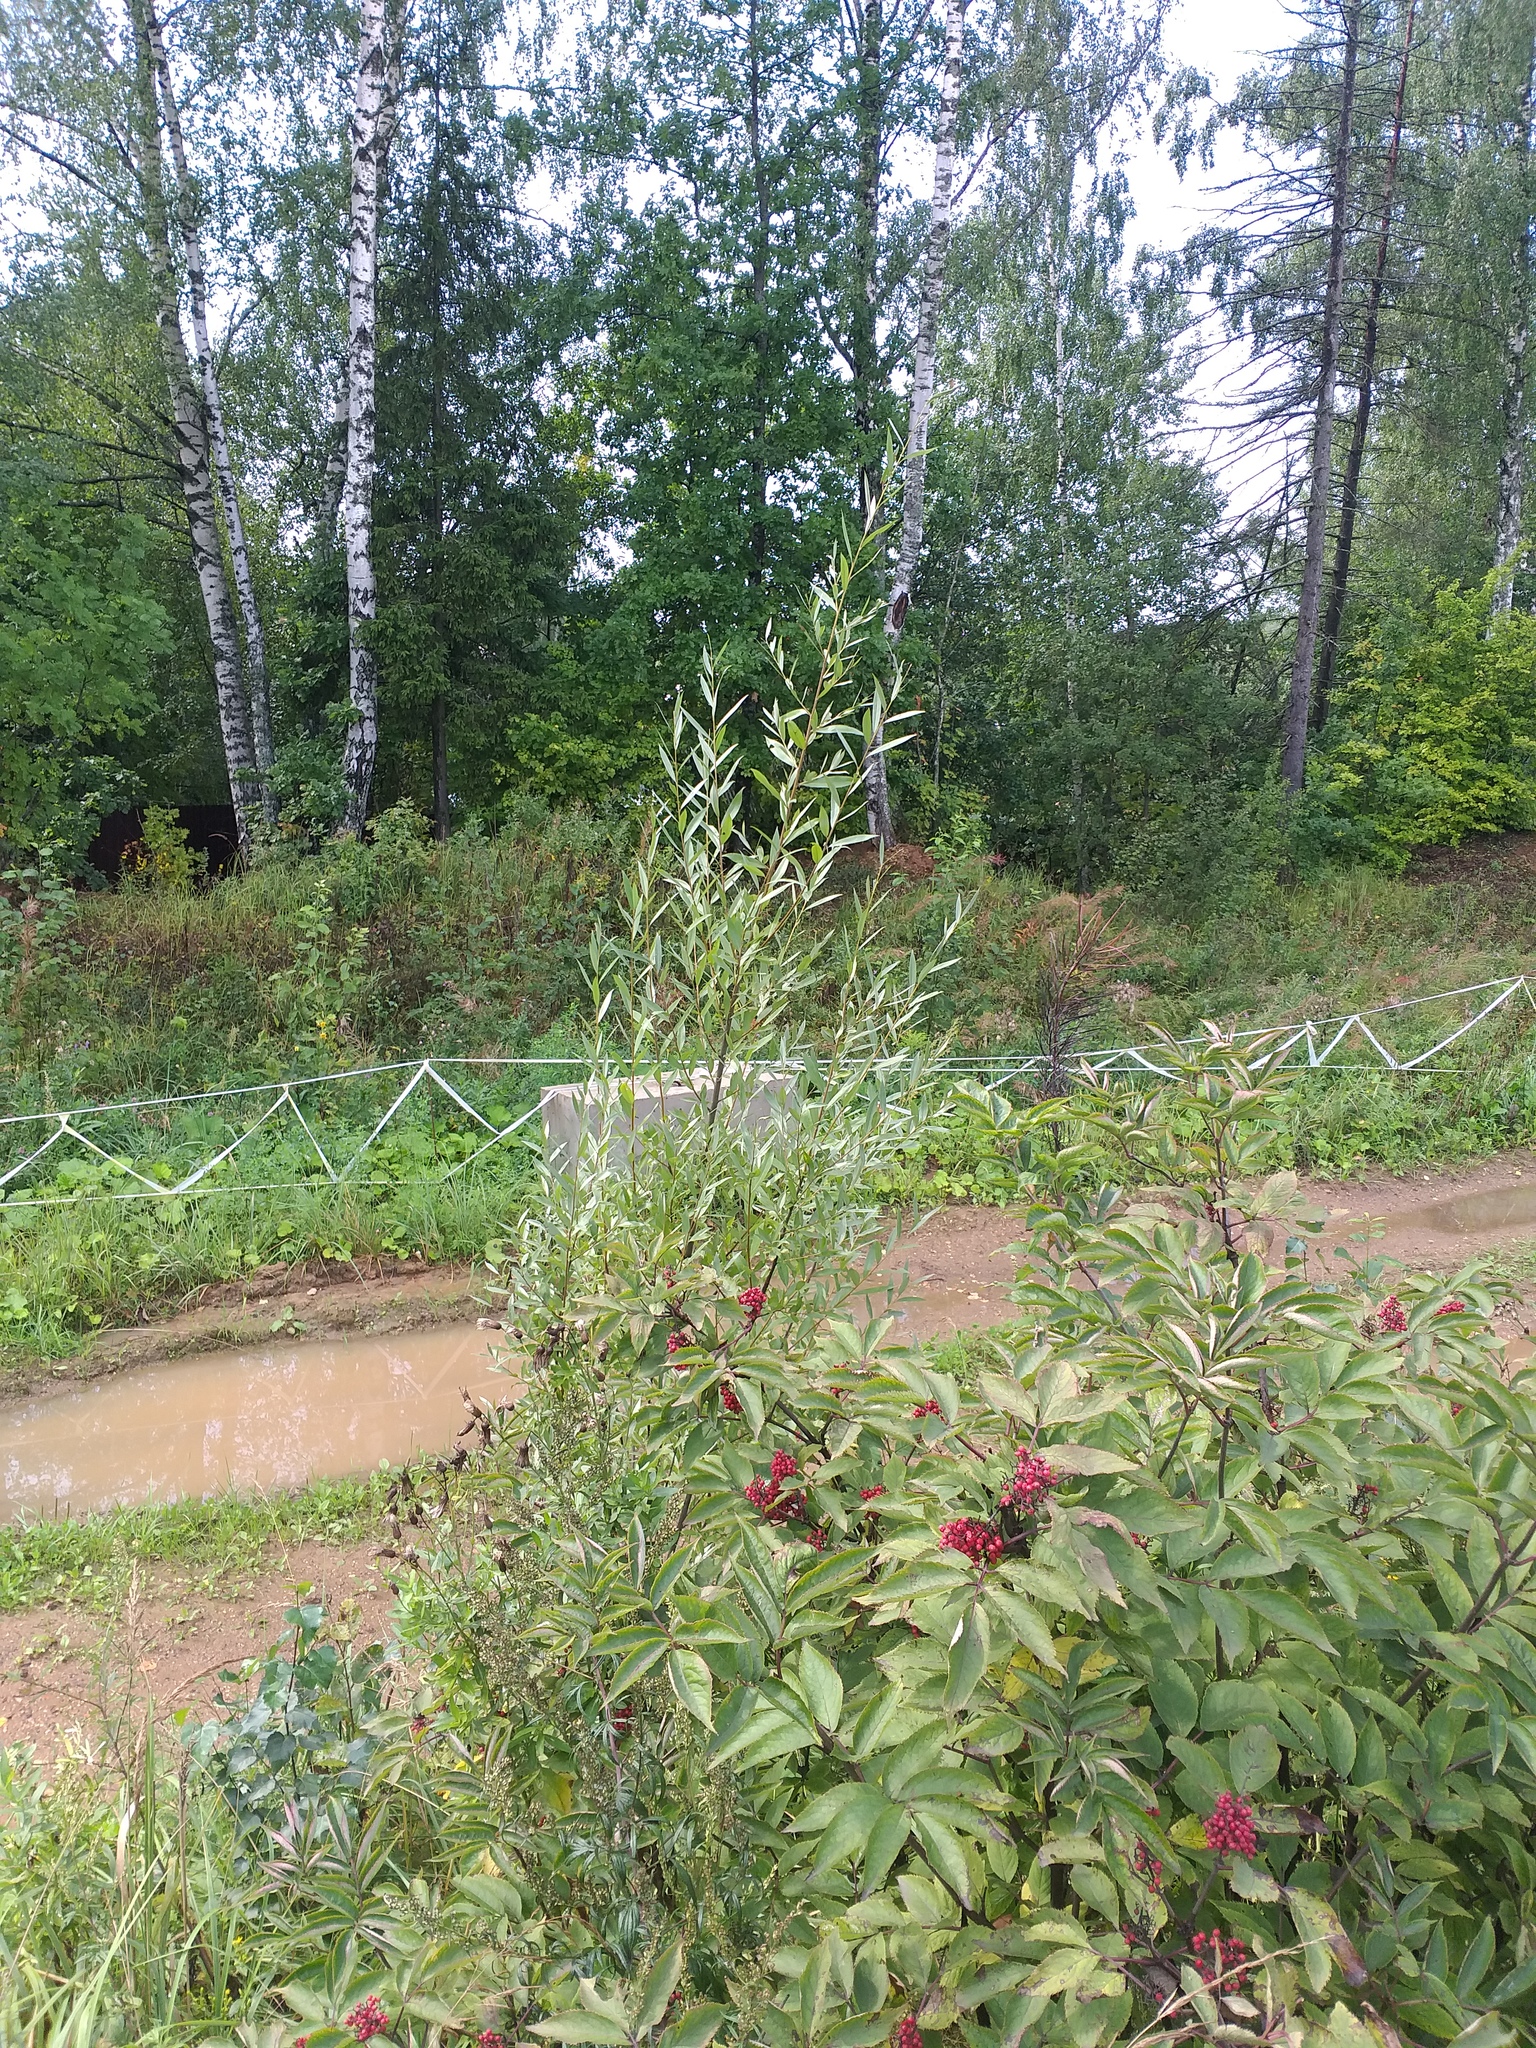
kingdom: Plantae
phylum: Tracheophyta
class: Magnoliopsida
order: Malpighiales
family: Salicaceae
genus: Salix
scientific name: Salix alba
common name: White willow
